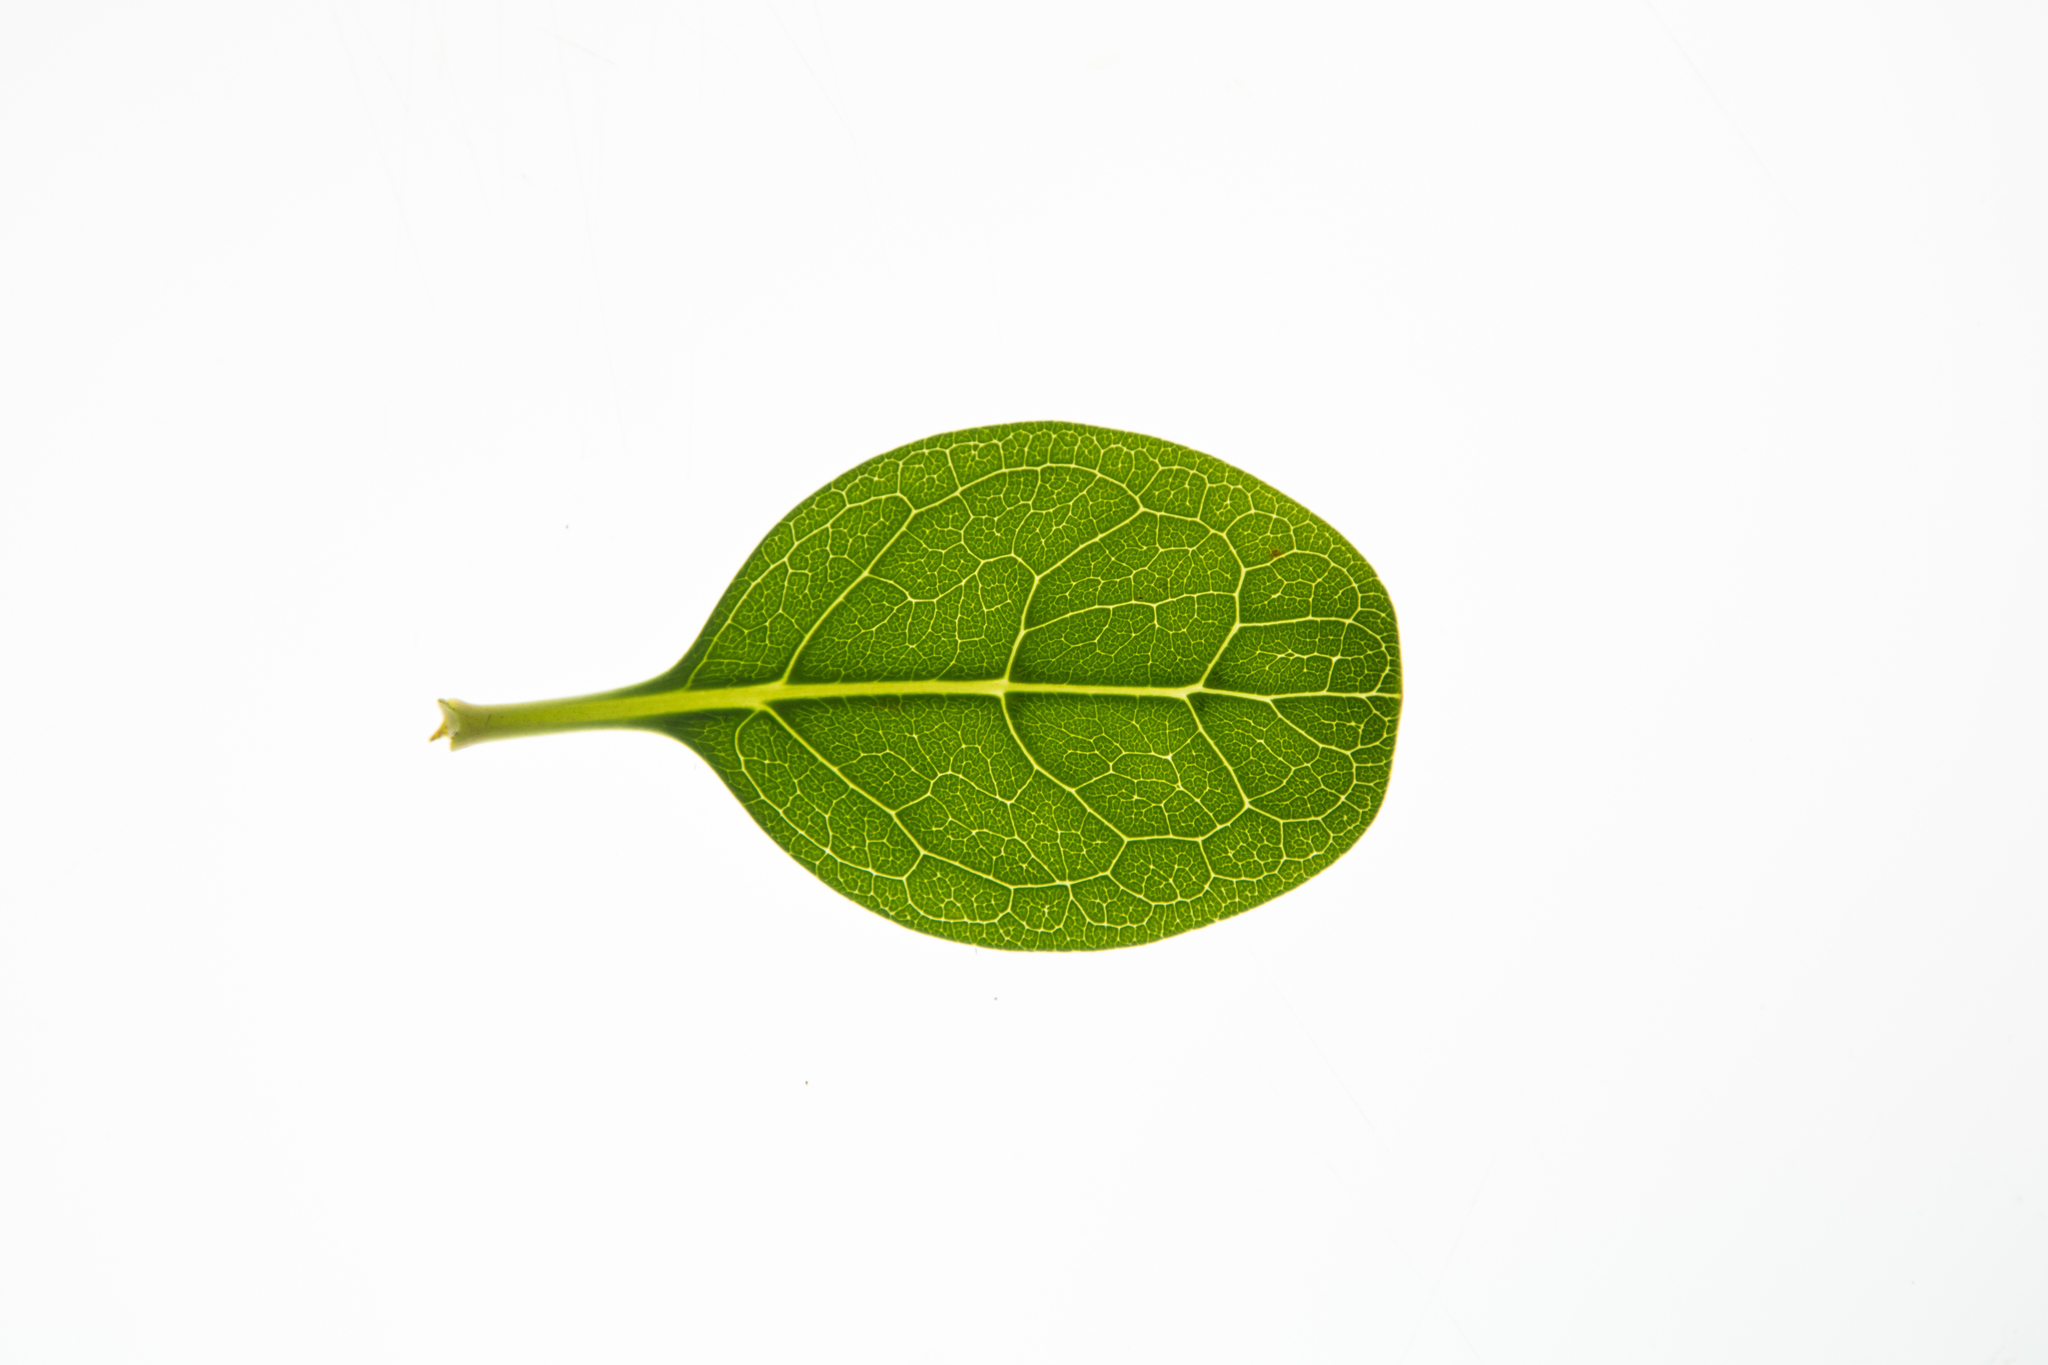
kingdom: Plantae
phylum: Tracheophyta
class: Magnoliopsida
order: Gentianales
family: Rubiaceae
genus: Coprosma
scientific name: Coprosma repens
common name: Tree bedstraw
